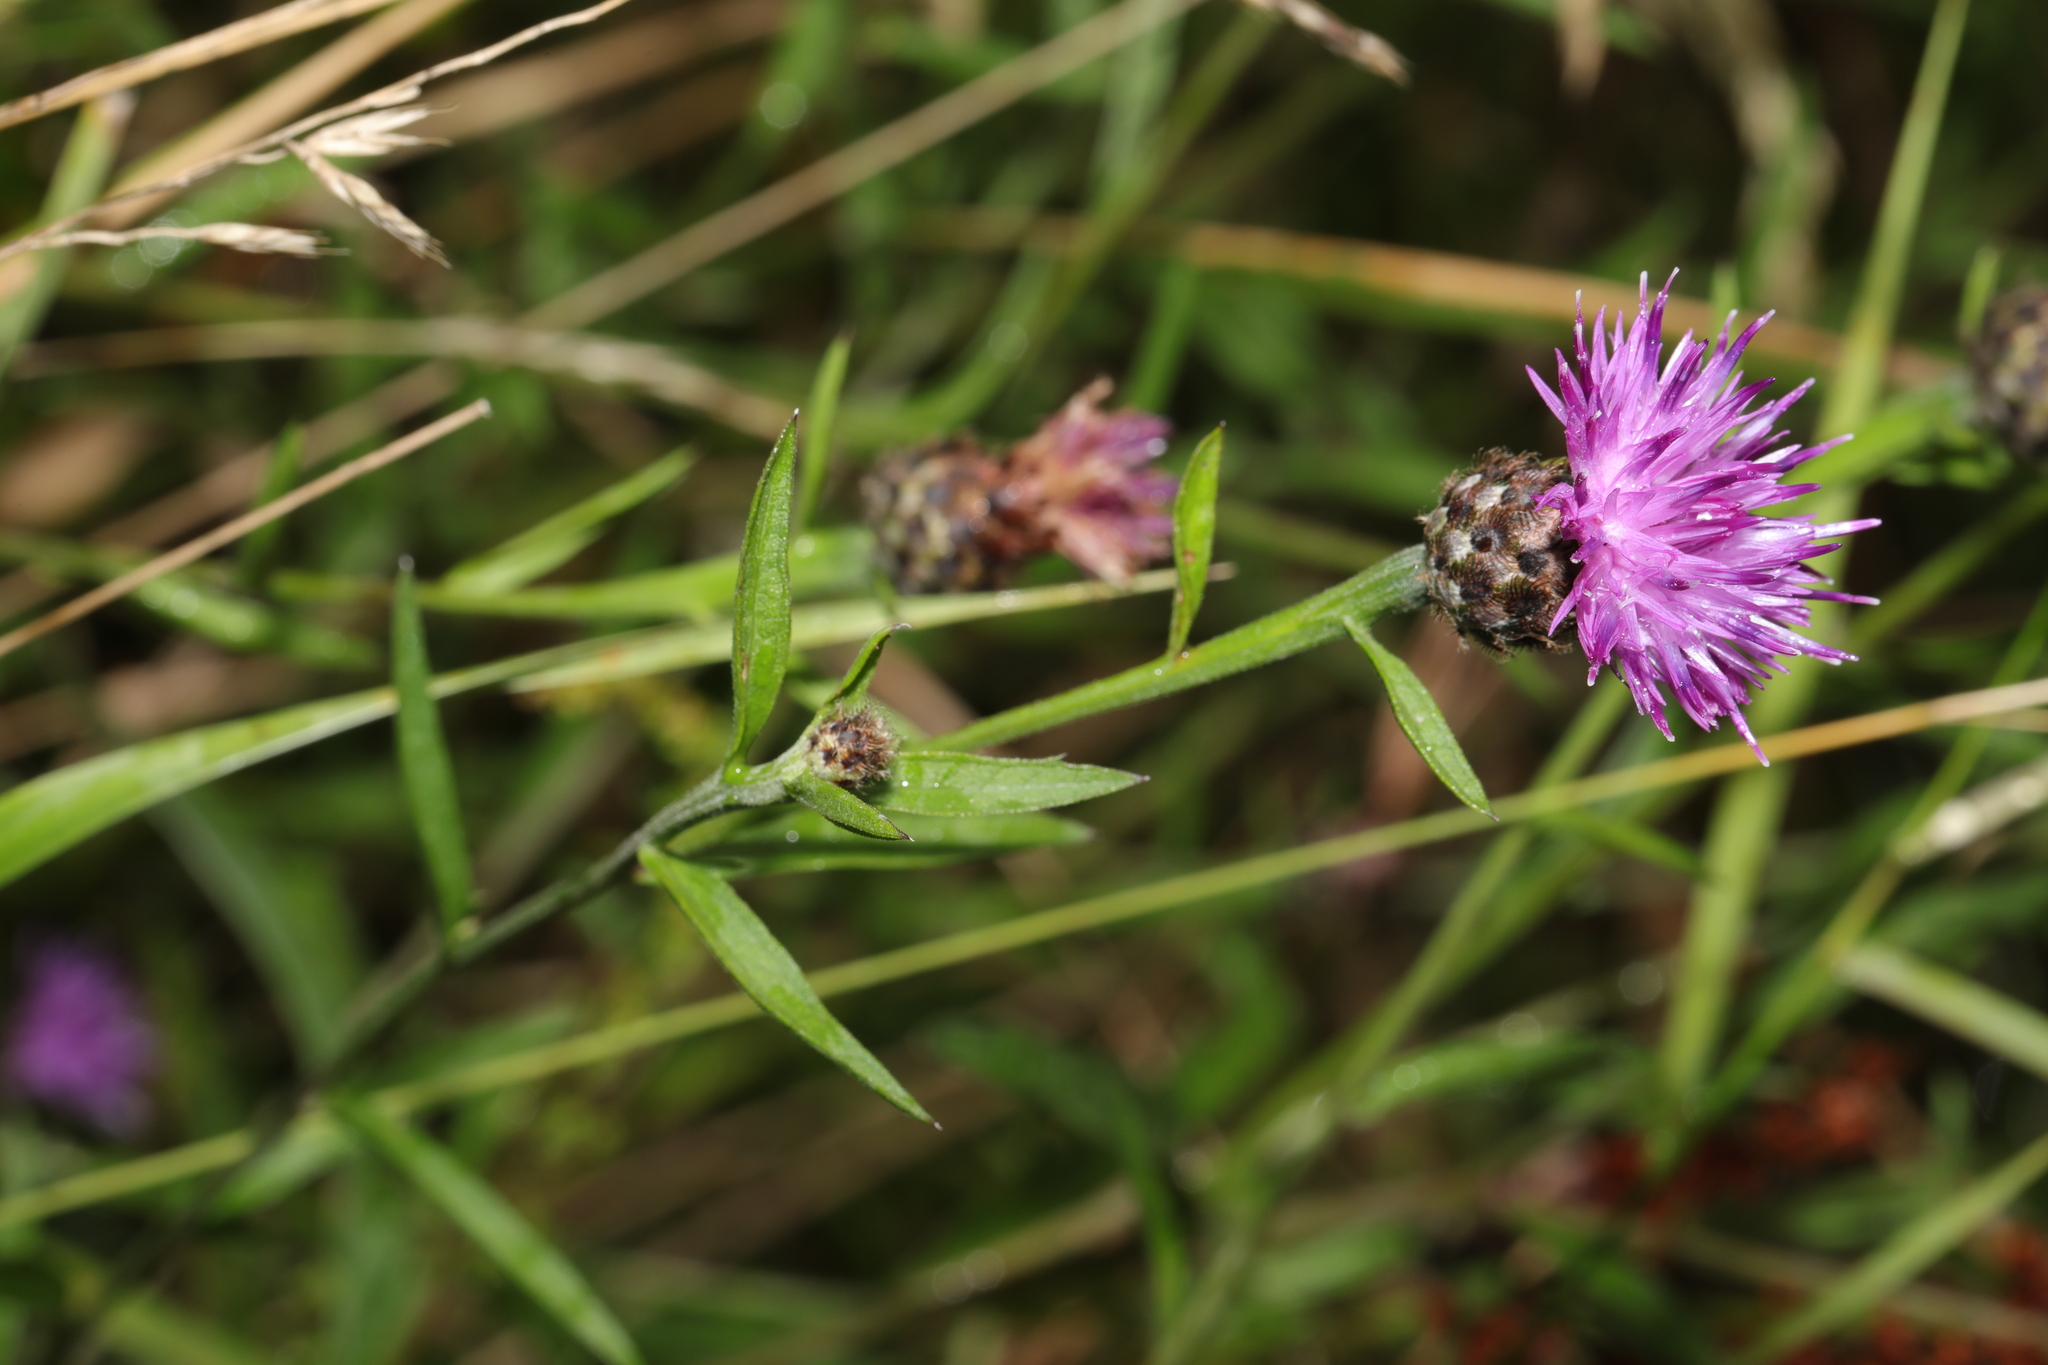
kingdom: Plantae
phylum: Tracheophyta
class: Magnoliopsida
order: Asterales
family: Asteraceae
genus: Centaurea
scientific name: Centaurea nigra
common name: Lesser knapweed
